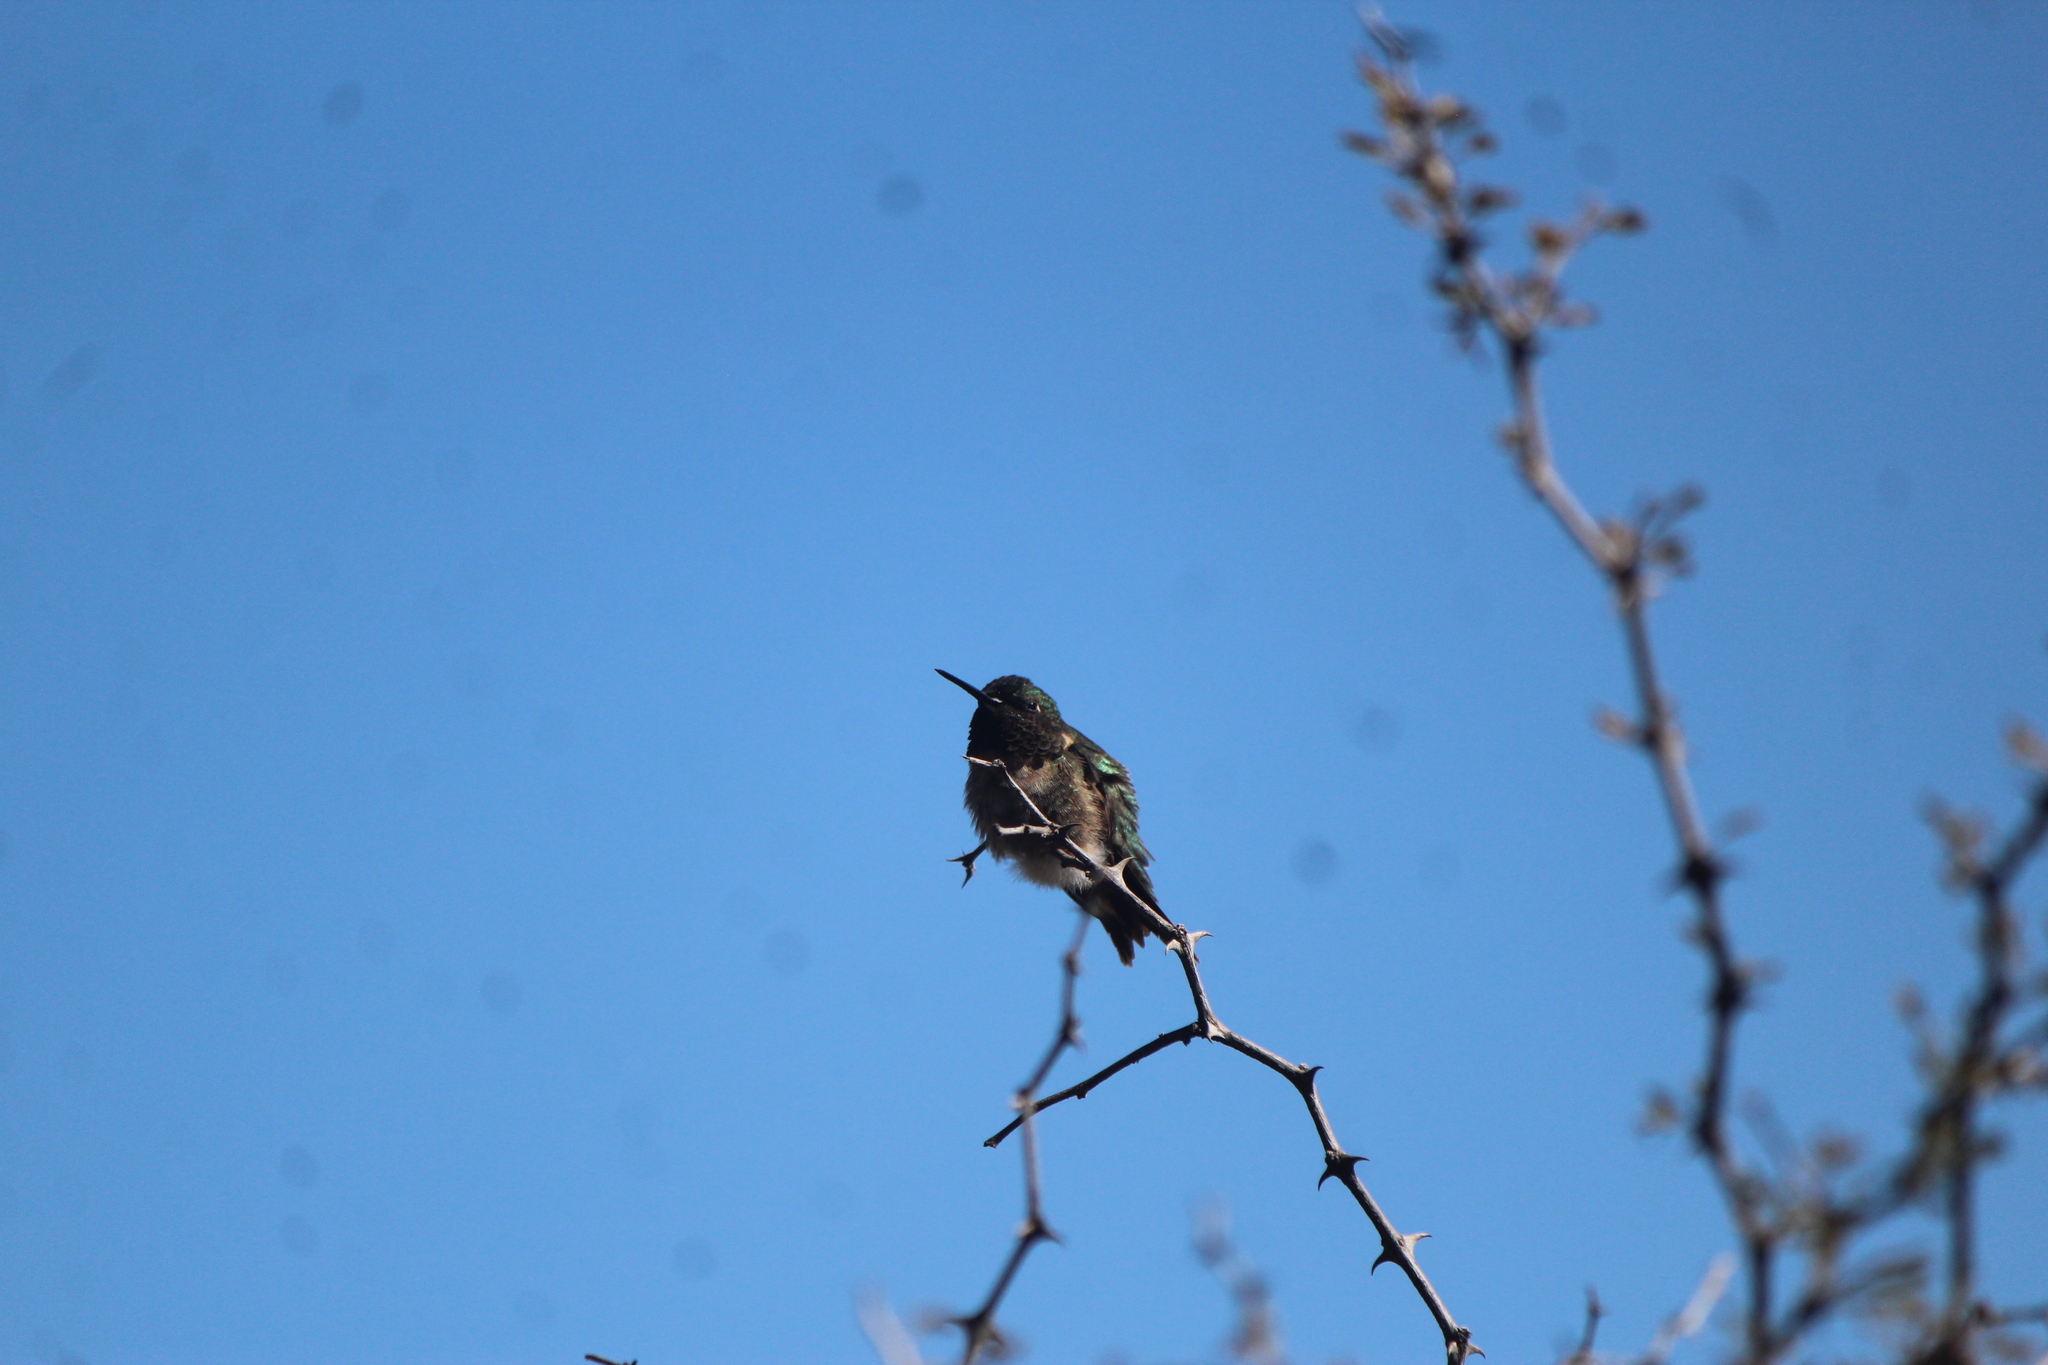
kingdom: Animalia
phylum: Chordata
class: Aves
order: Apodiformes
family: Trochilidae
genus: Archilochus
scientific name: Archilochus colubris
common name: Ruby-throated hummingbird
